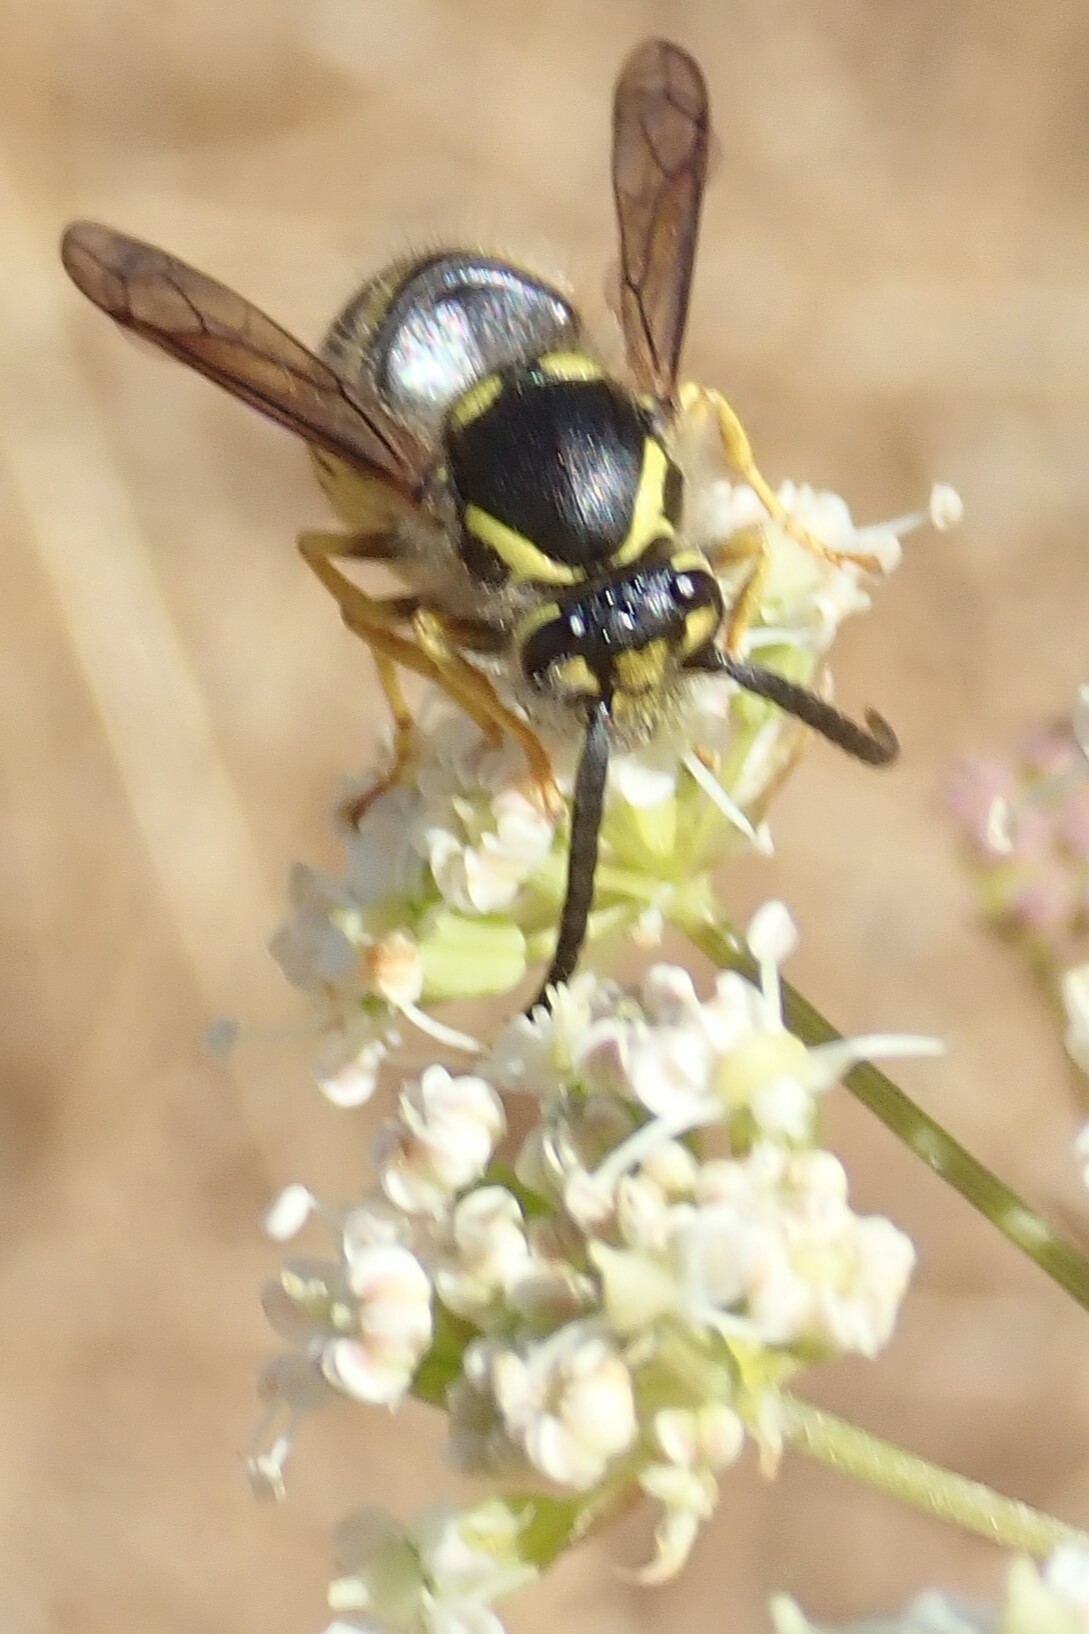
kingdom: Animalia
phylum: Arthropoda
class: Insecta
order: Hymenoptera
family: Vespidae
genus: Dolichovespula
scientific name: Dolichovespula arenaria
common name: Aerial yellowjacket
